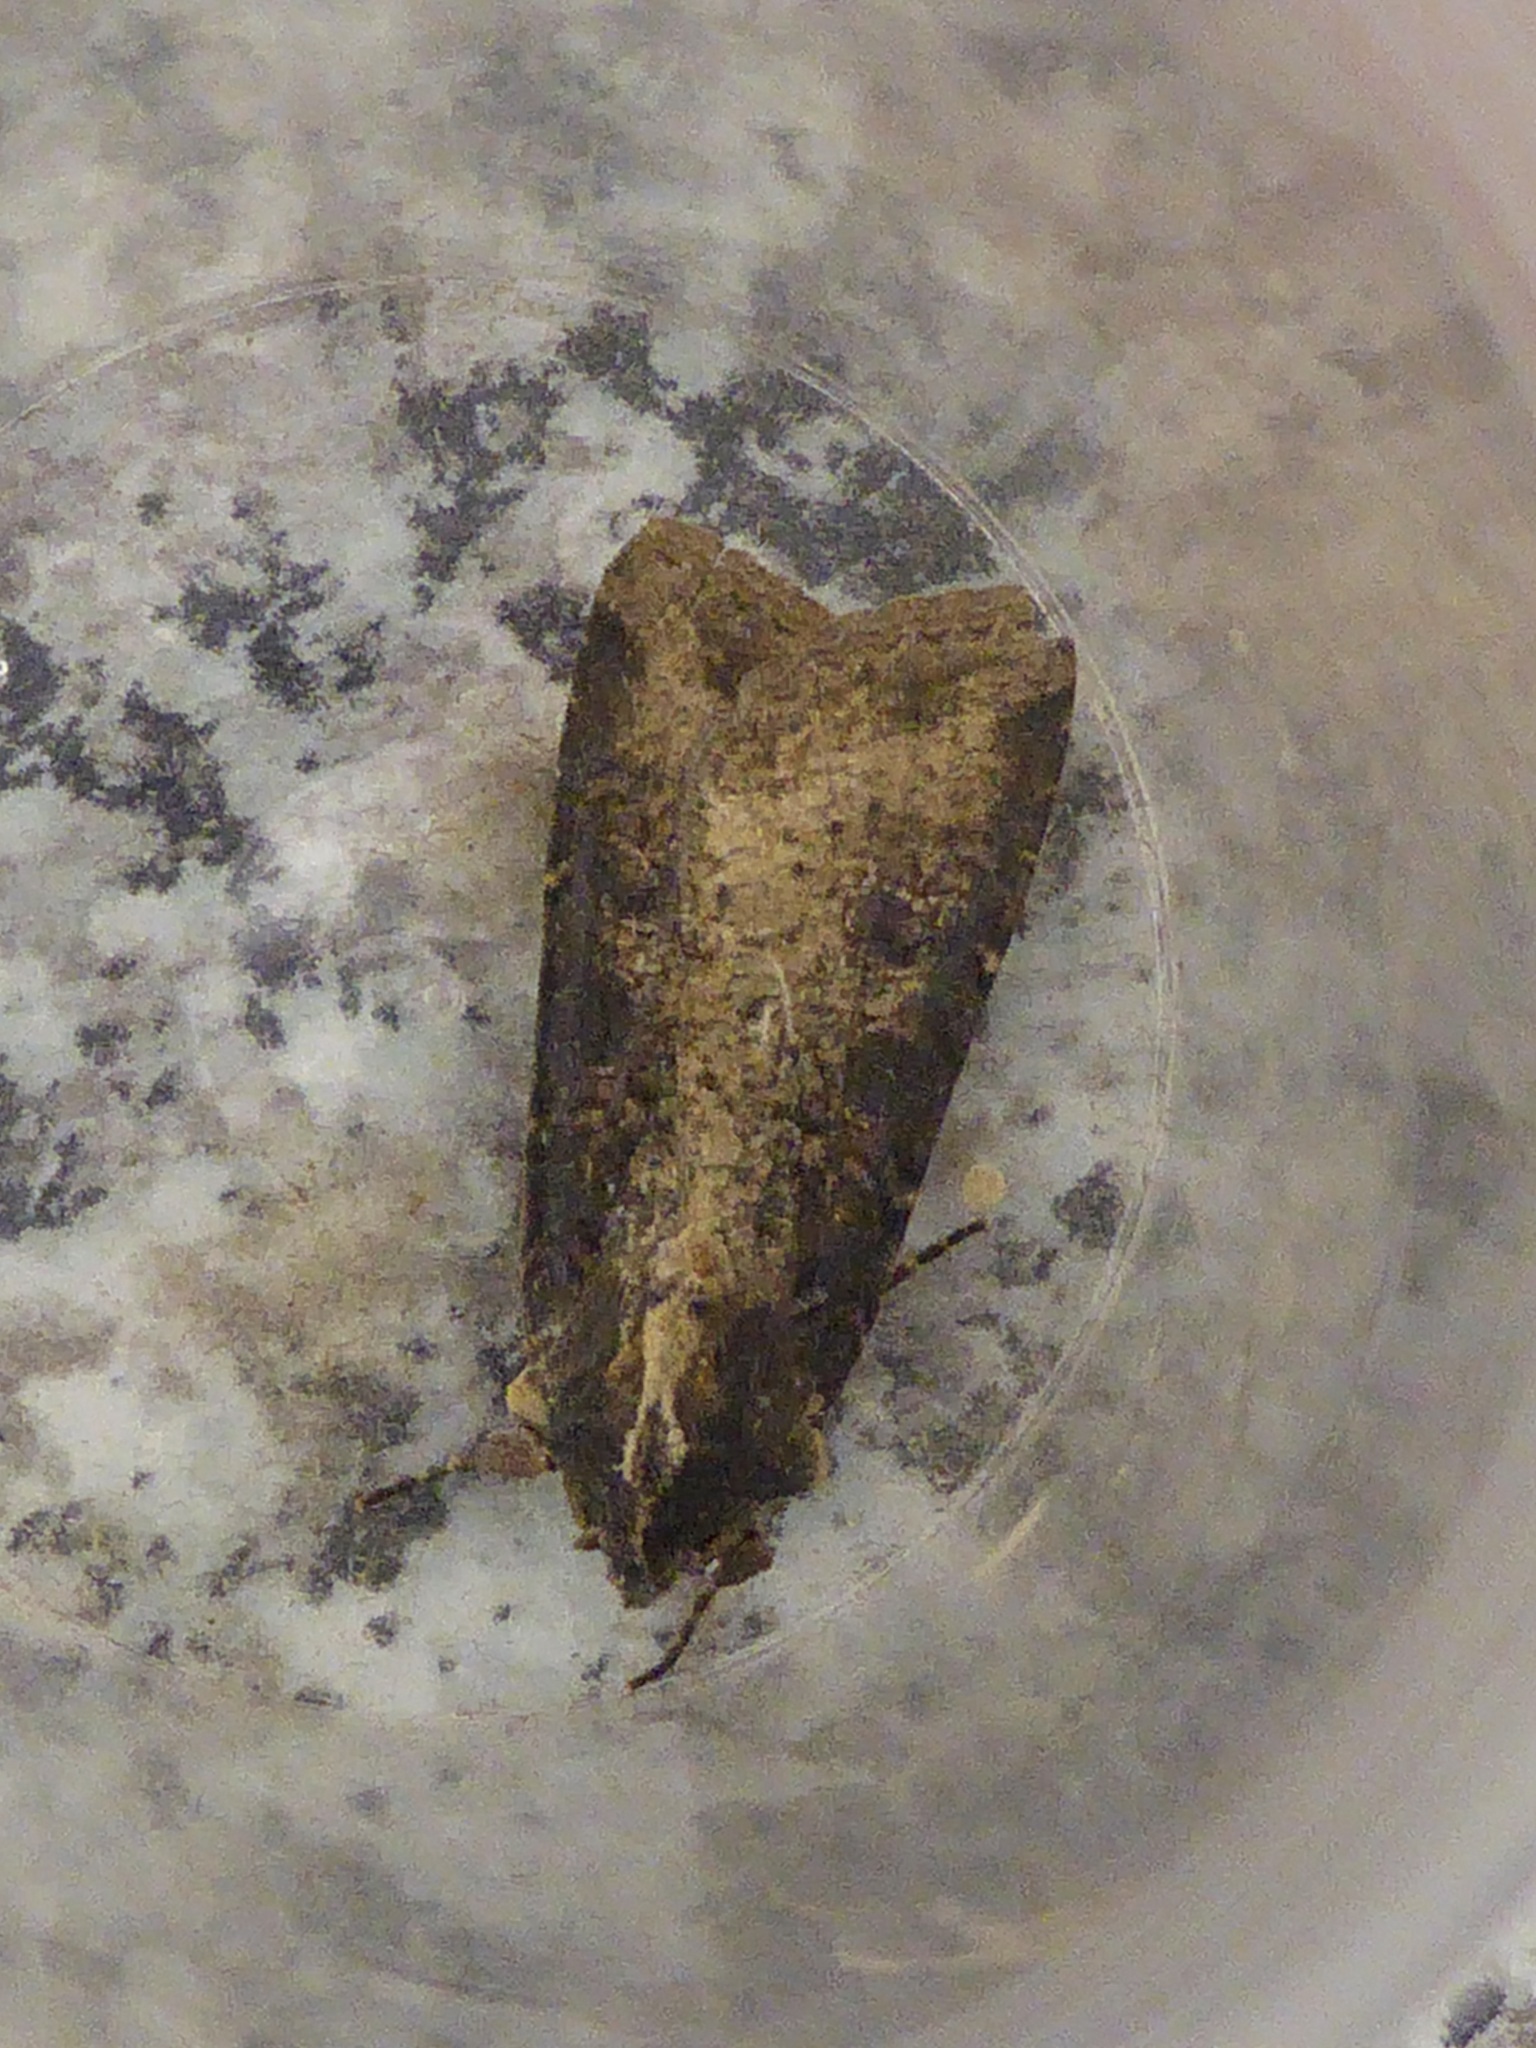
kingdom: Animalia
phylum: Arthropoda
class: Insecta
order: Lepidoptera
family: Noctuidae
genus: Peridroma
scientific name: Peridroma saucia
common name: Pearly underwing
